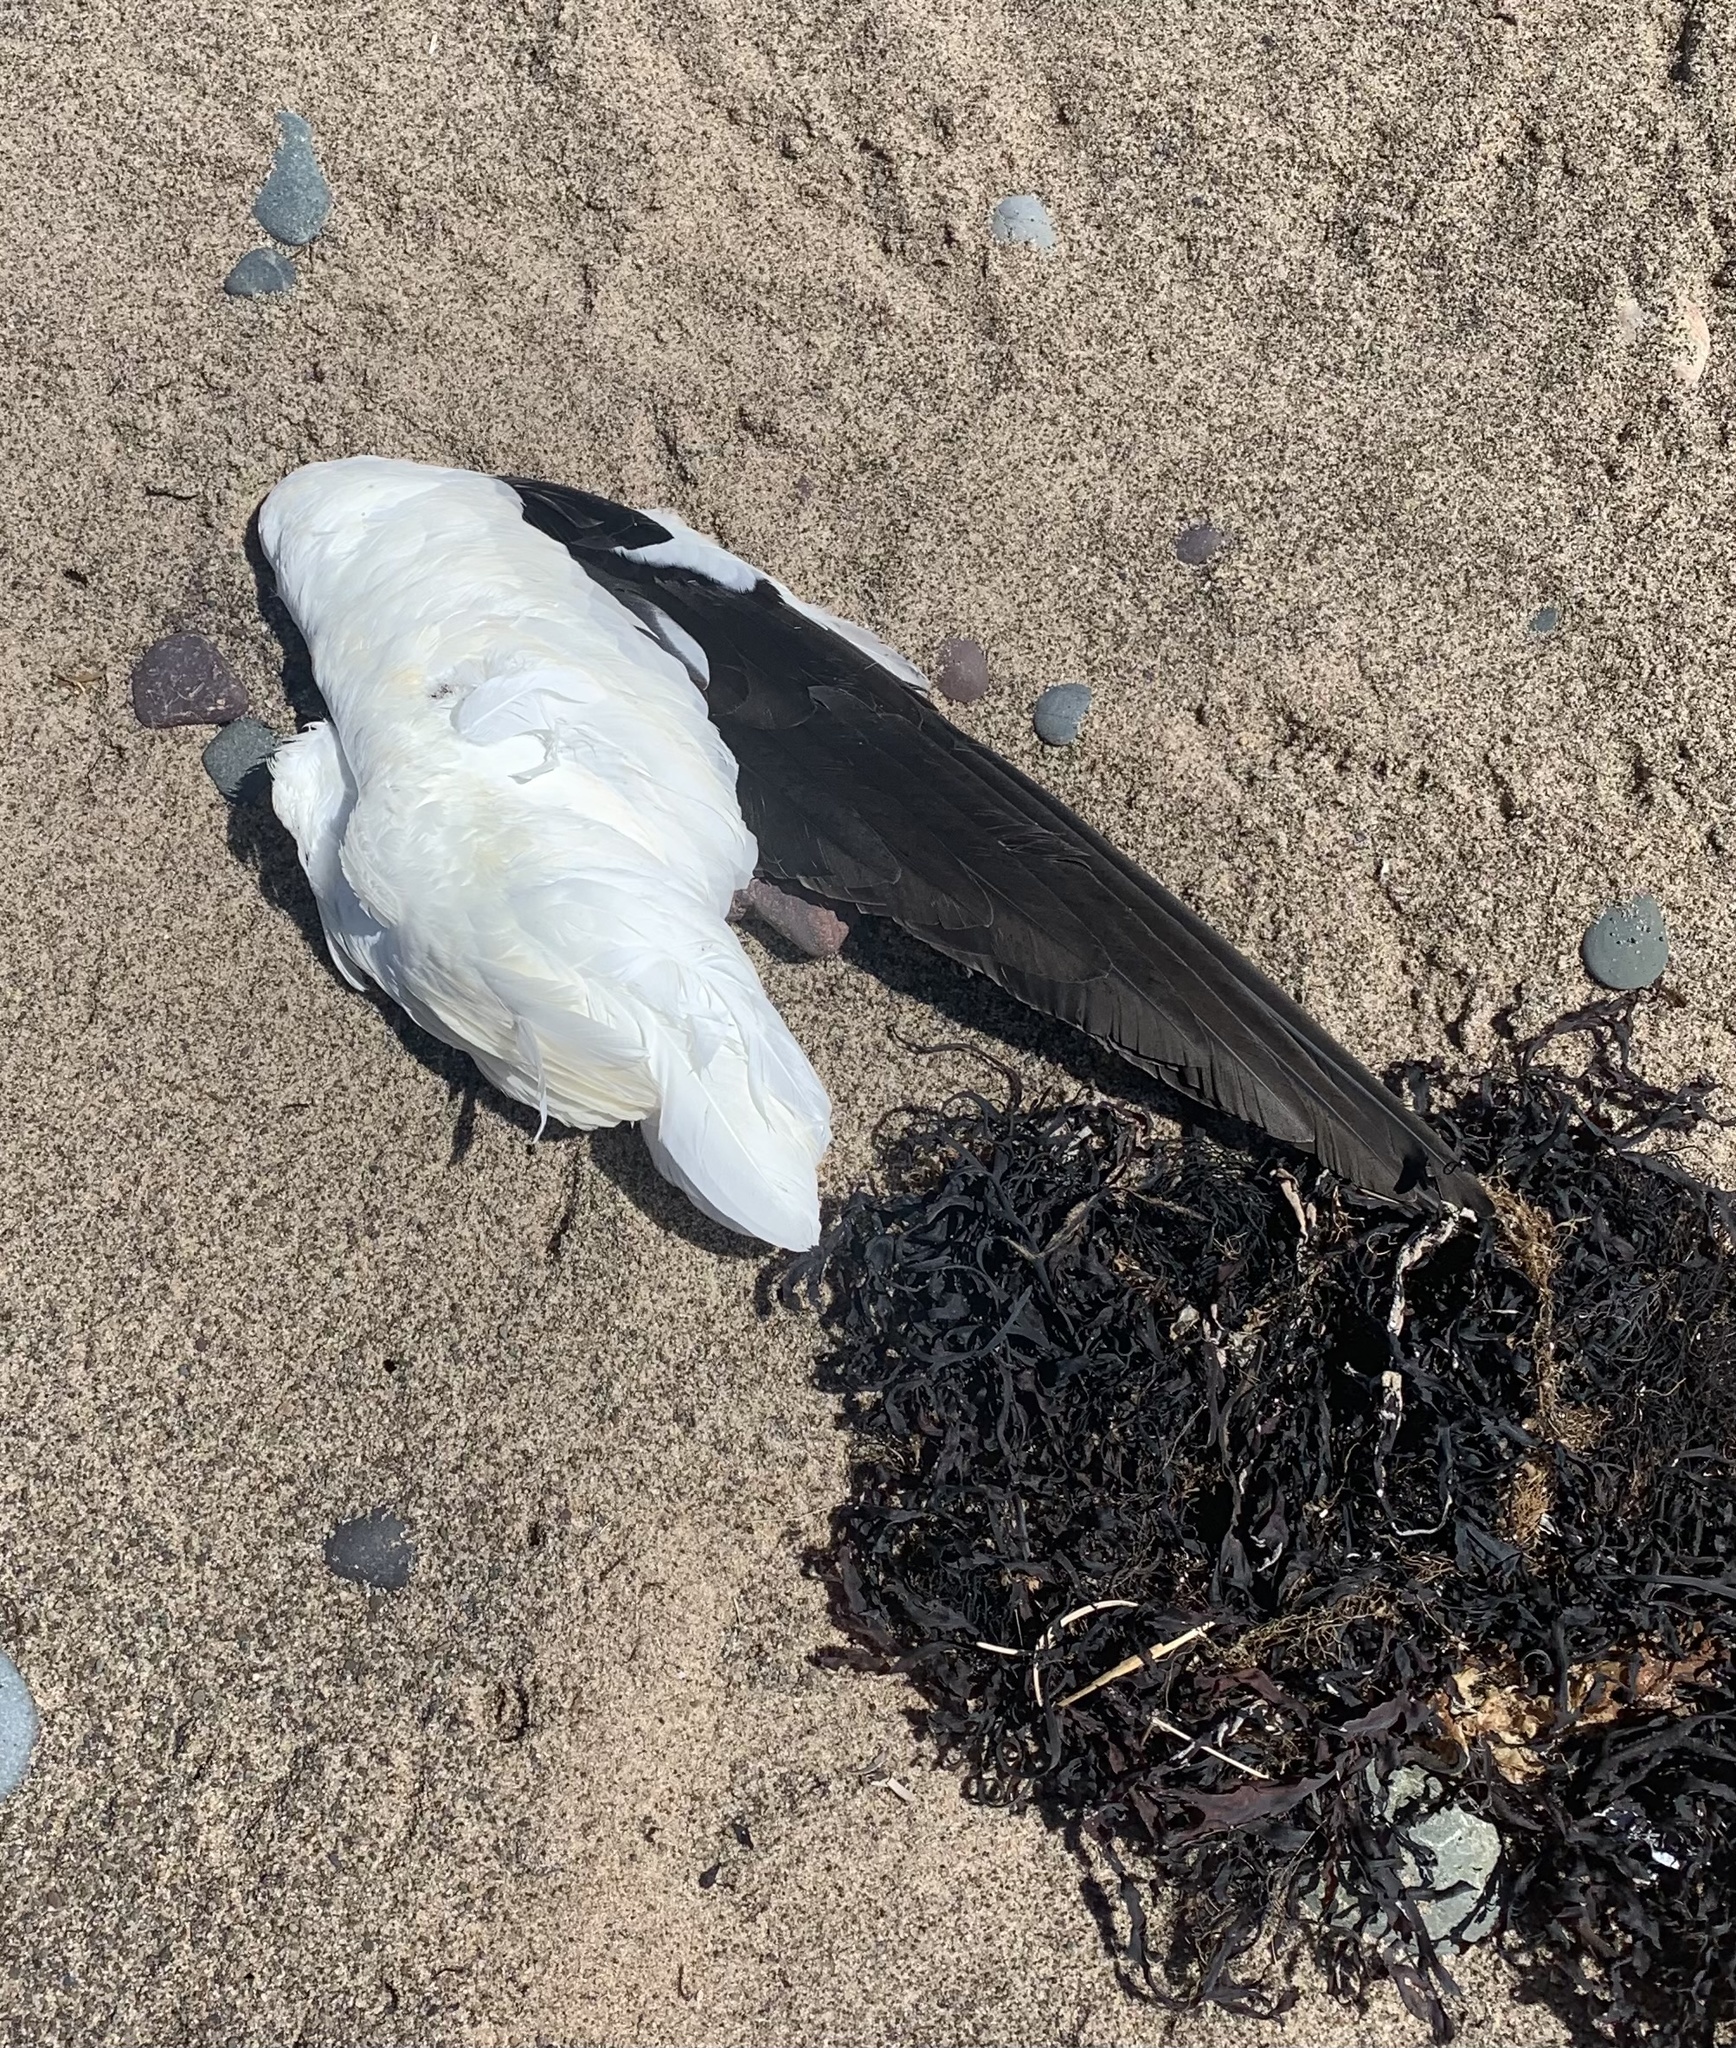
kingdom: Animalia
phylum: Chordata
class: Aves
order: Suliformes
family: Sulidae
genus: Morus
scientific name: Morus bassanus
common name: Northern gannet
